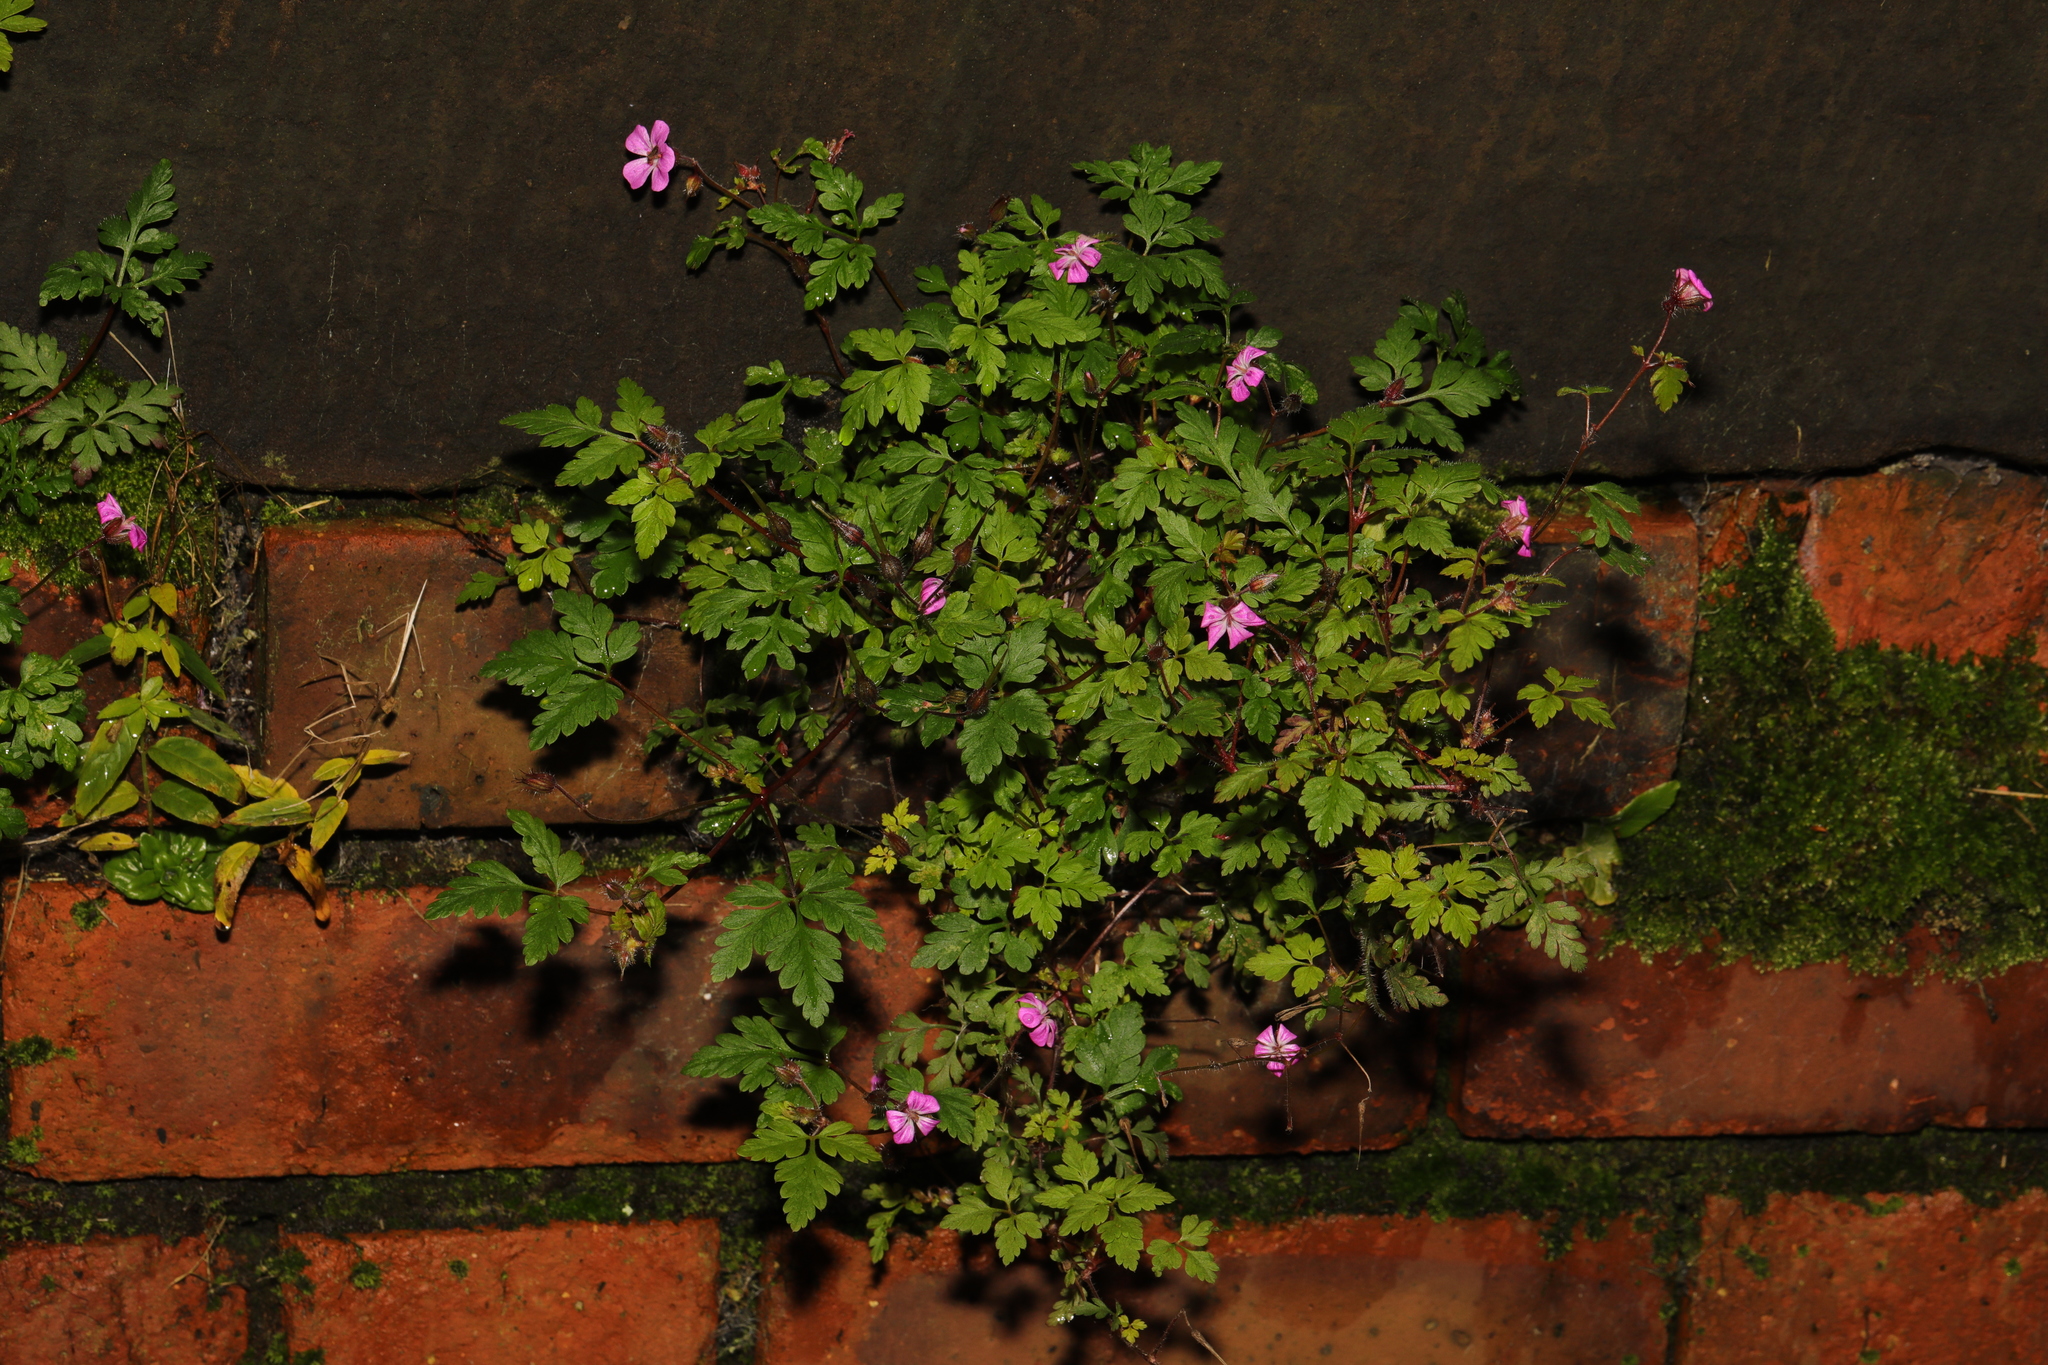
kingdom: Plantae
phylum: Tracheophyta
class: Magnoliopsida
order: Geraniales
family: Geraniaceae
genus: Geranium
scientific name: Geranium robertianum
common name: Herb-robert
